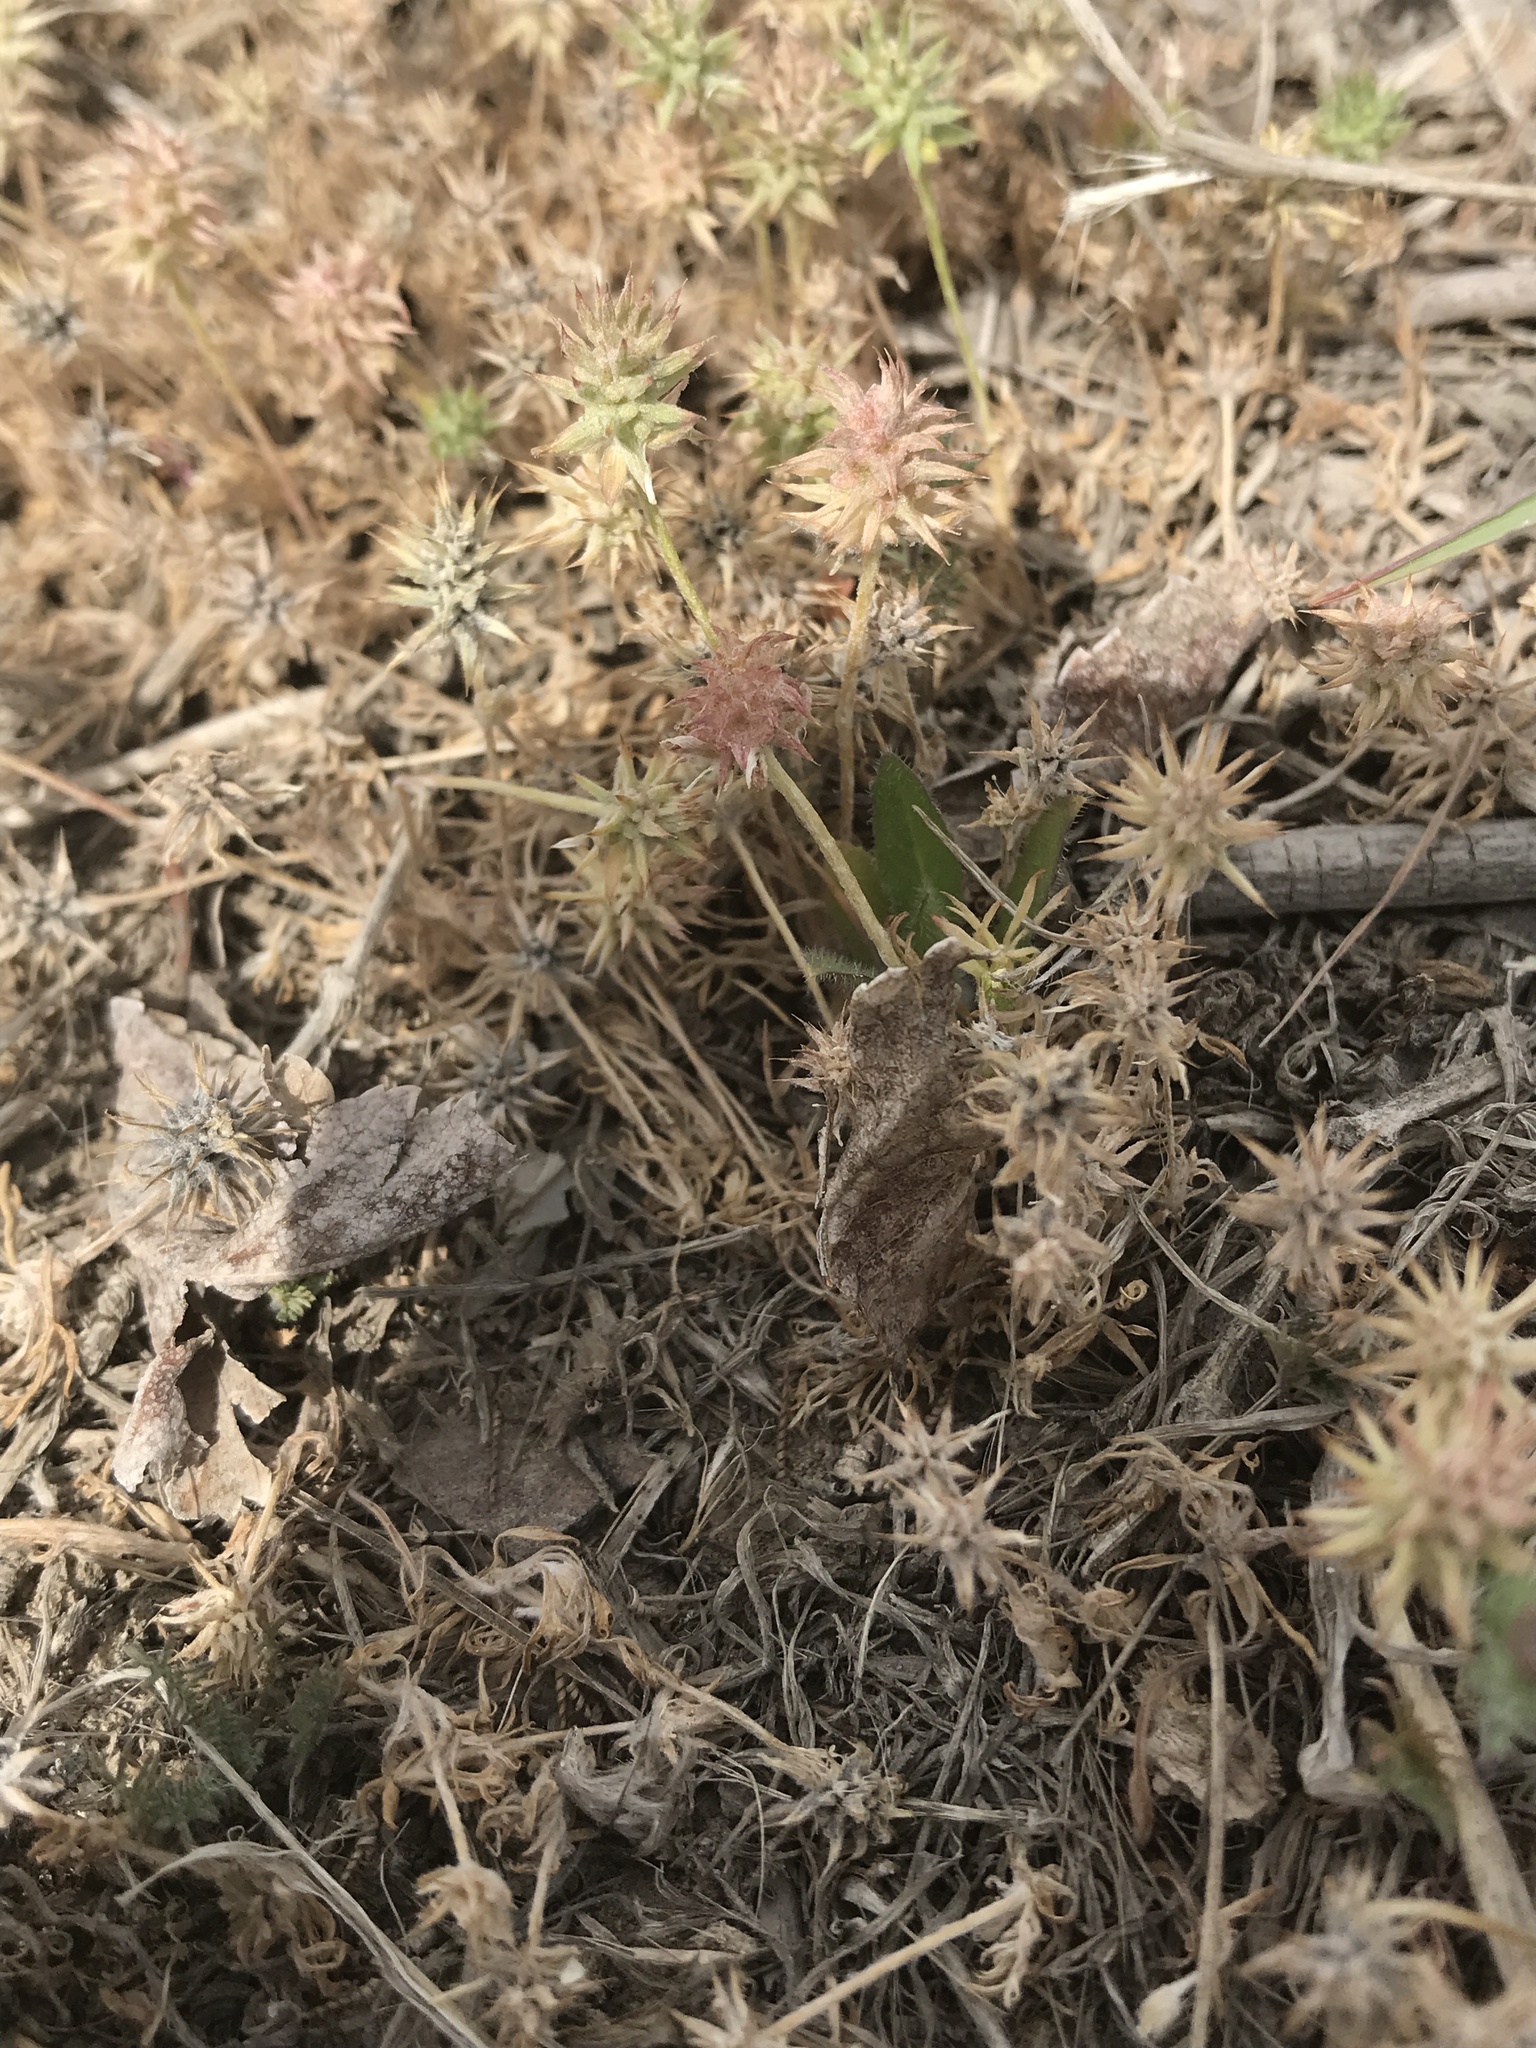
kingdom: Plantae
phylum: Tracheophyta
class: Magnoliopsida
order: Ranunculales
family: Ranunculaceae
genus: Ceratocephala
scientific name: Ceratocephala orthoceras
